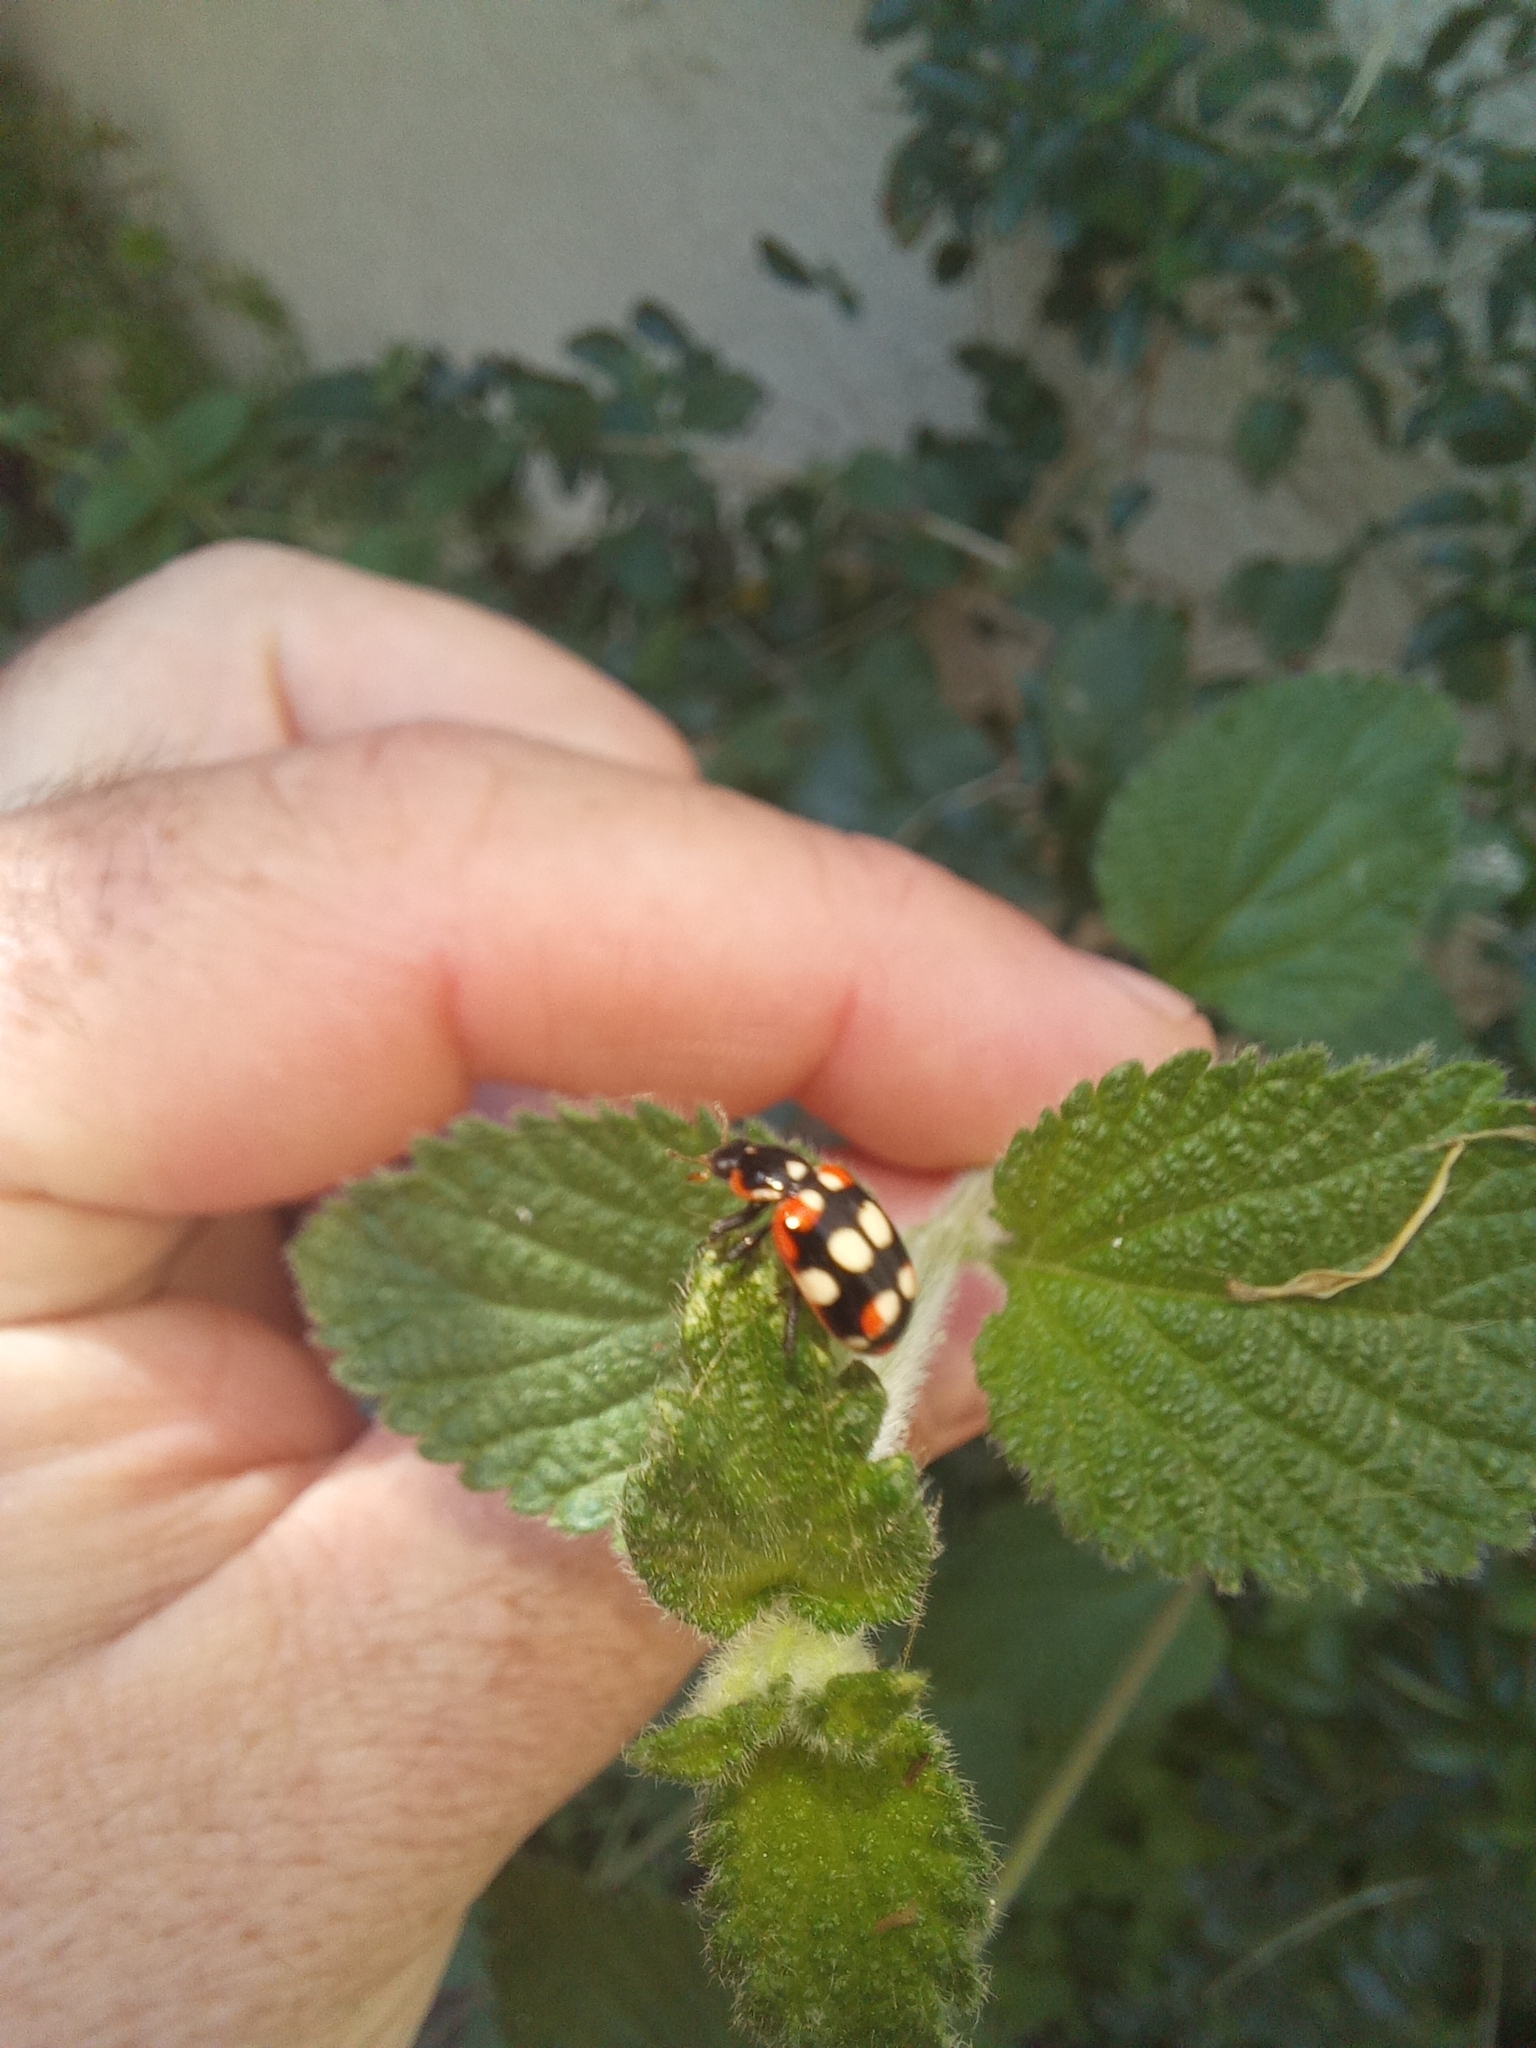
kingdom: Animalia
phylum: Arthropoda
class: Insecta
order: Coleoptera
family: Coccinellidae
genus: Eriopis
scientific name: Eriopis connexa
